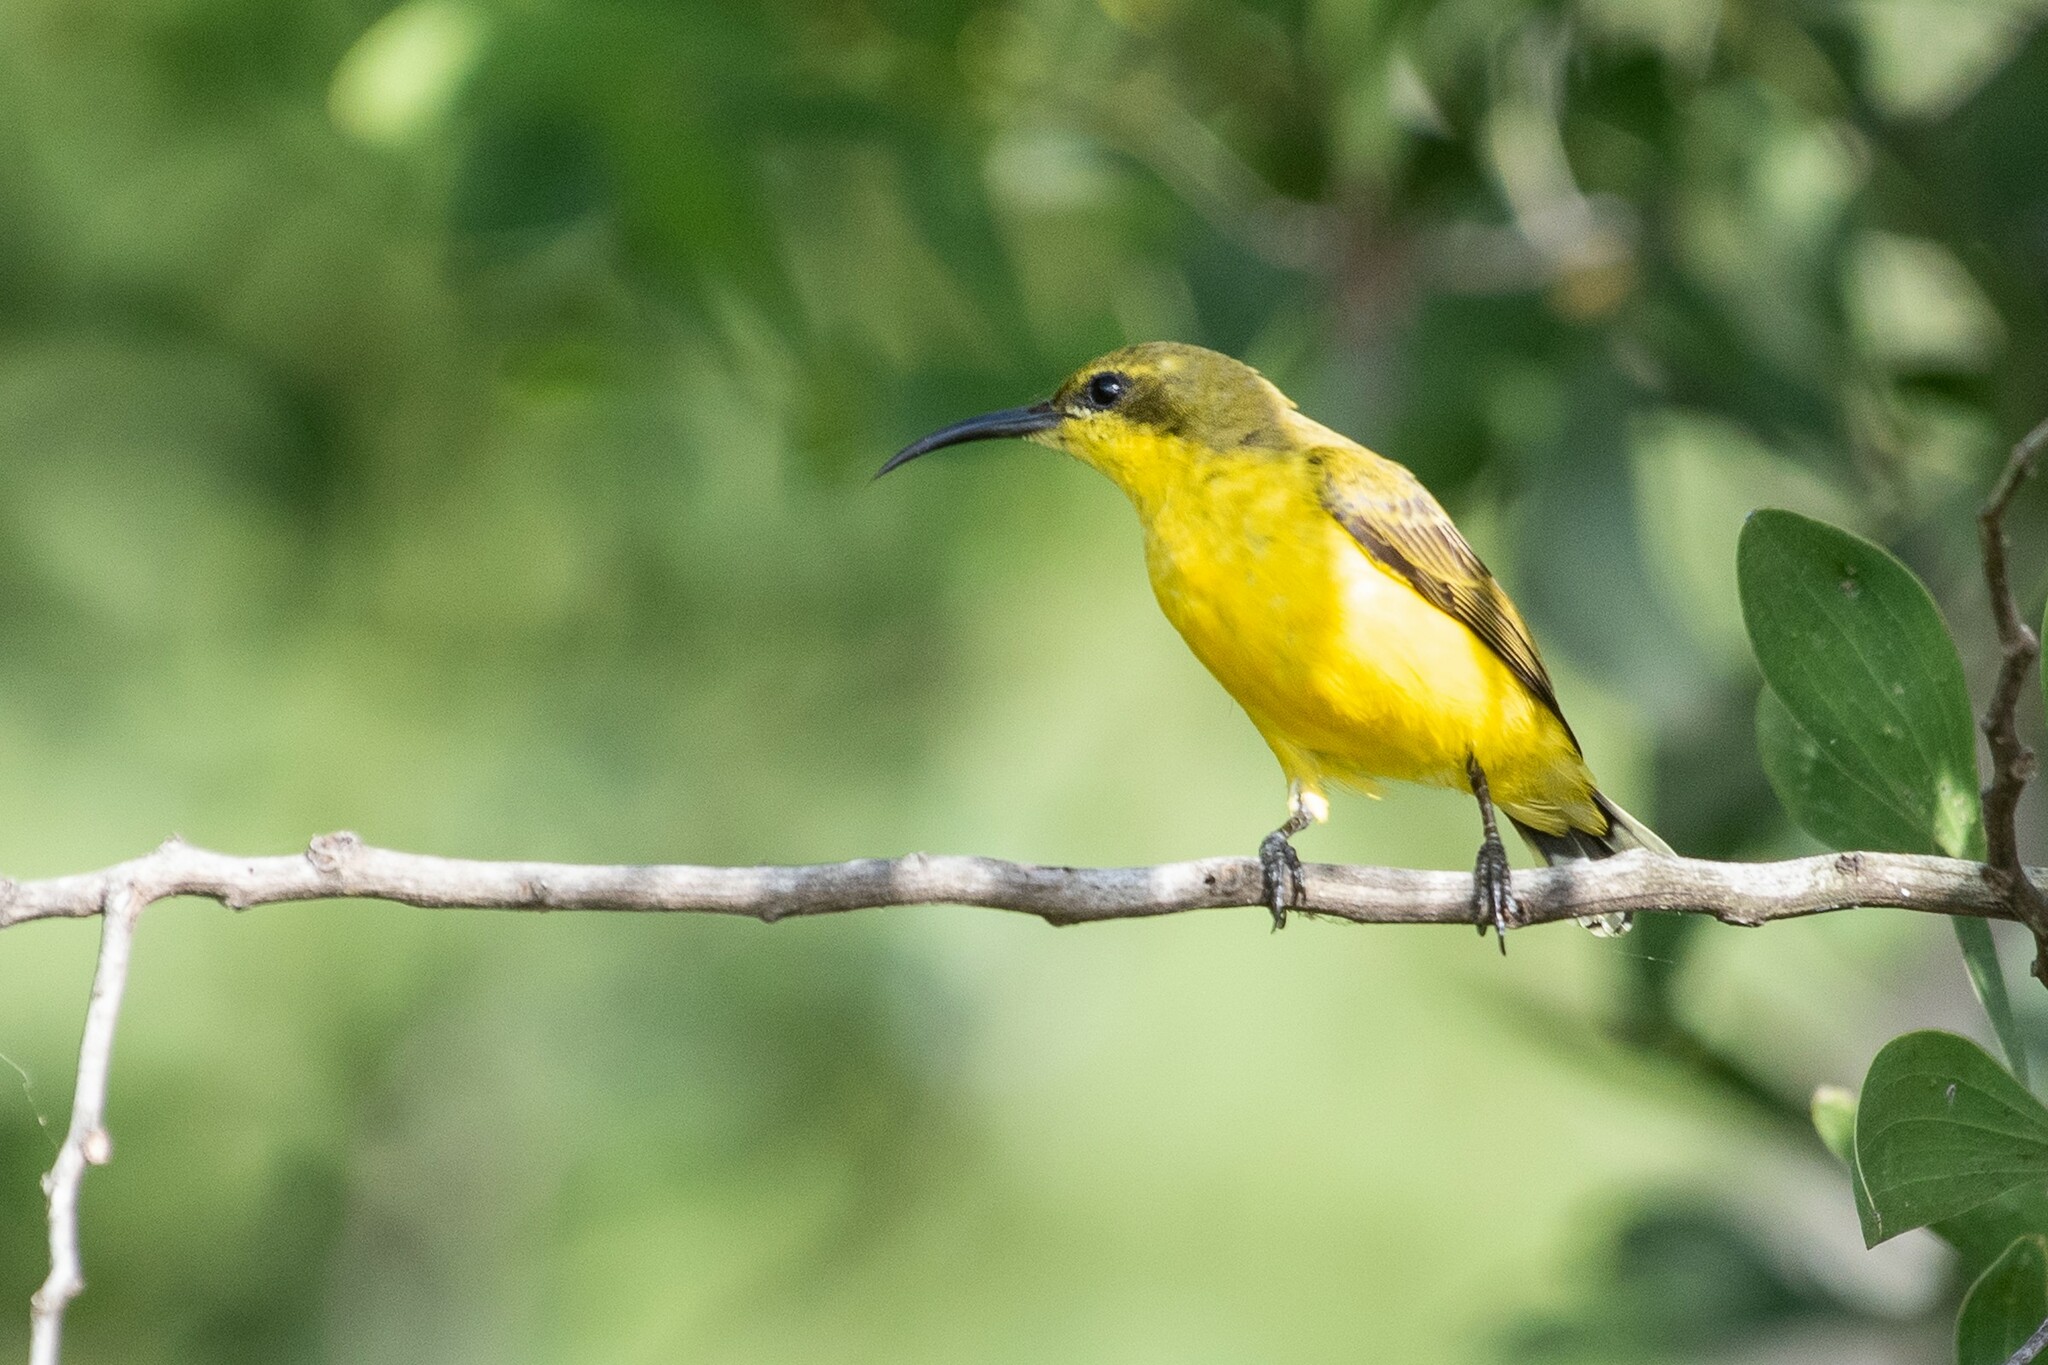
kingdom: Animalia
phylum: Chordata
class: Aves
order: Passeriformes
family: Nectariniidae
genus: Cinnyris
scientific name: Cinnyris
